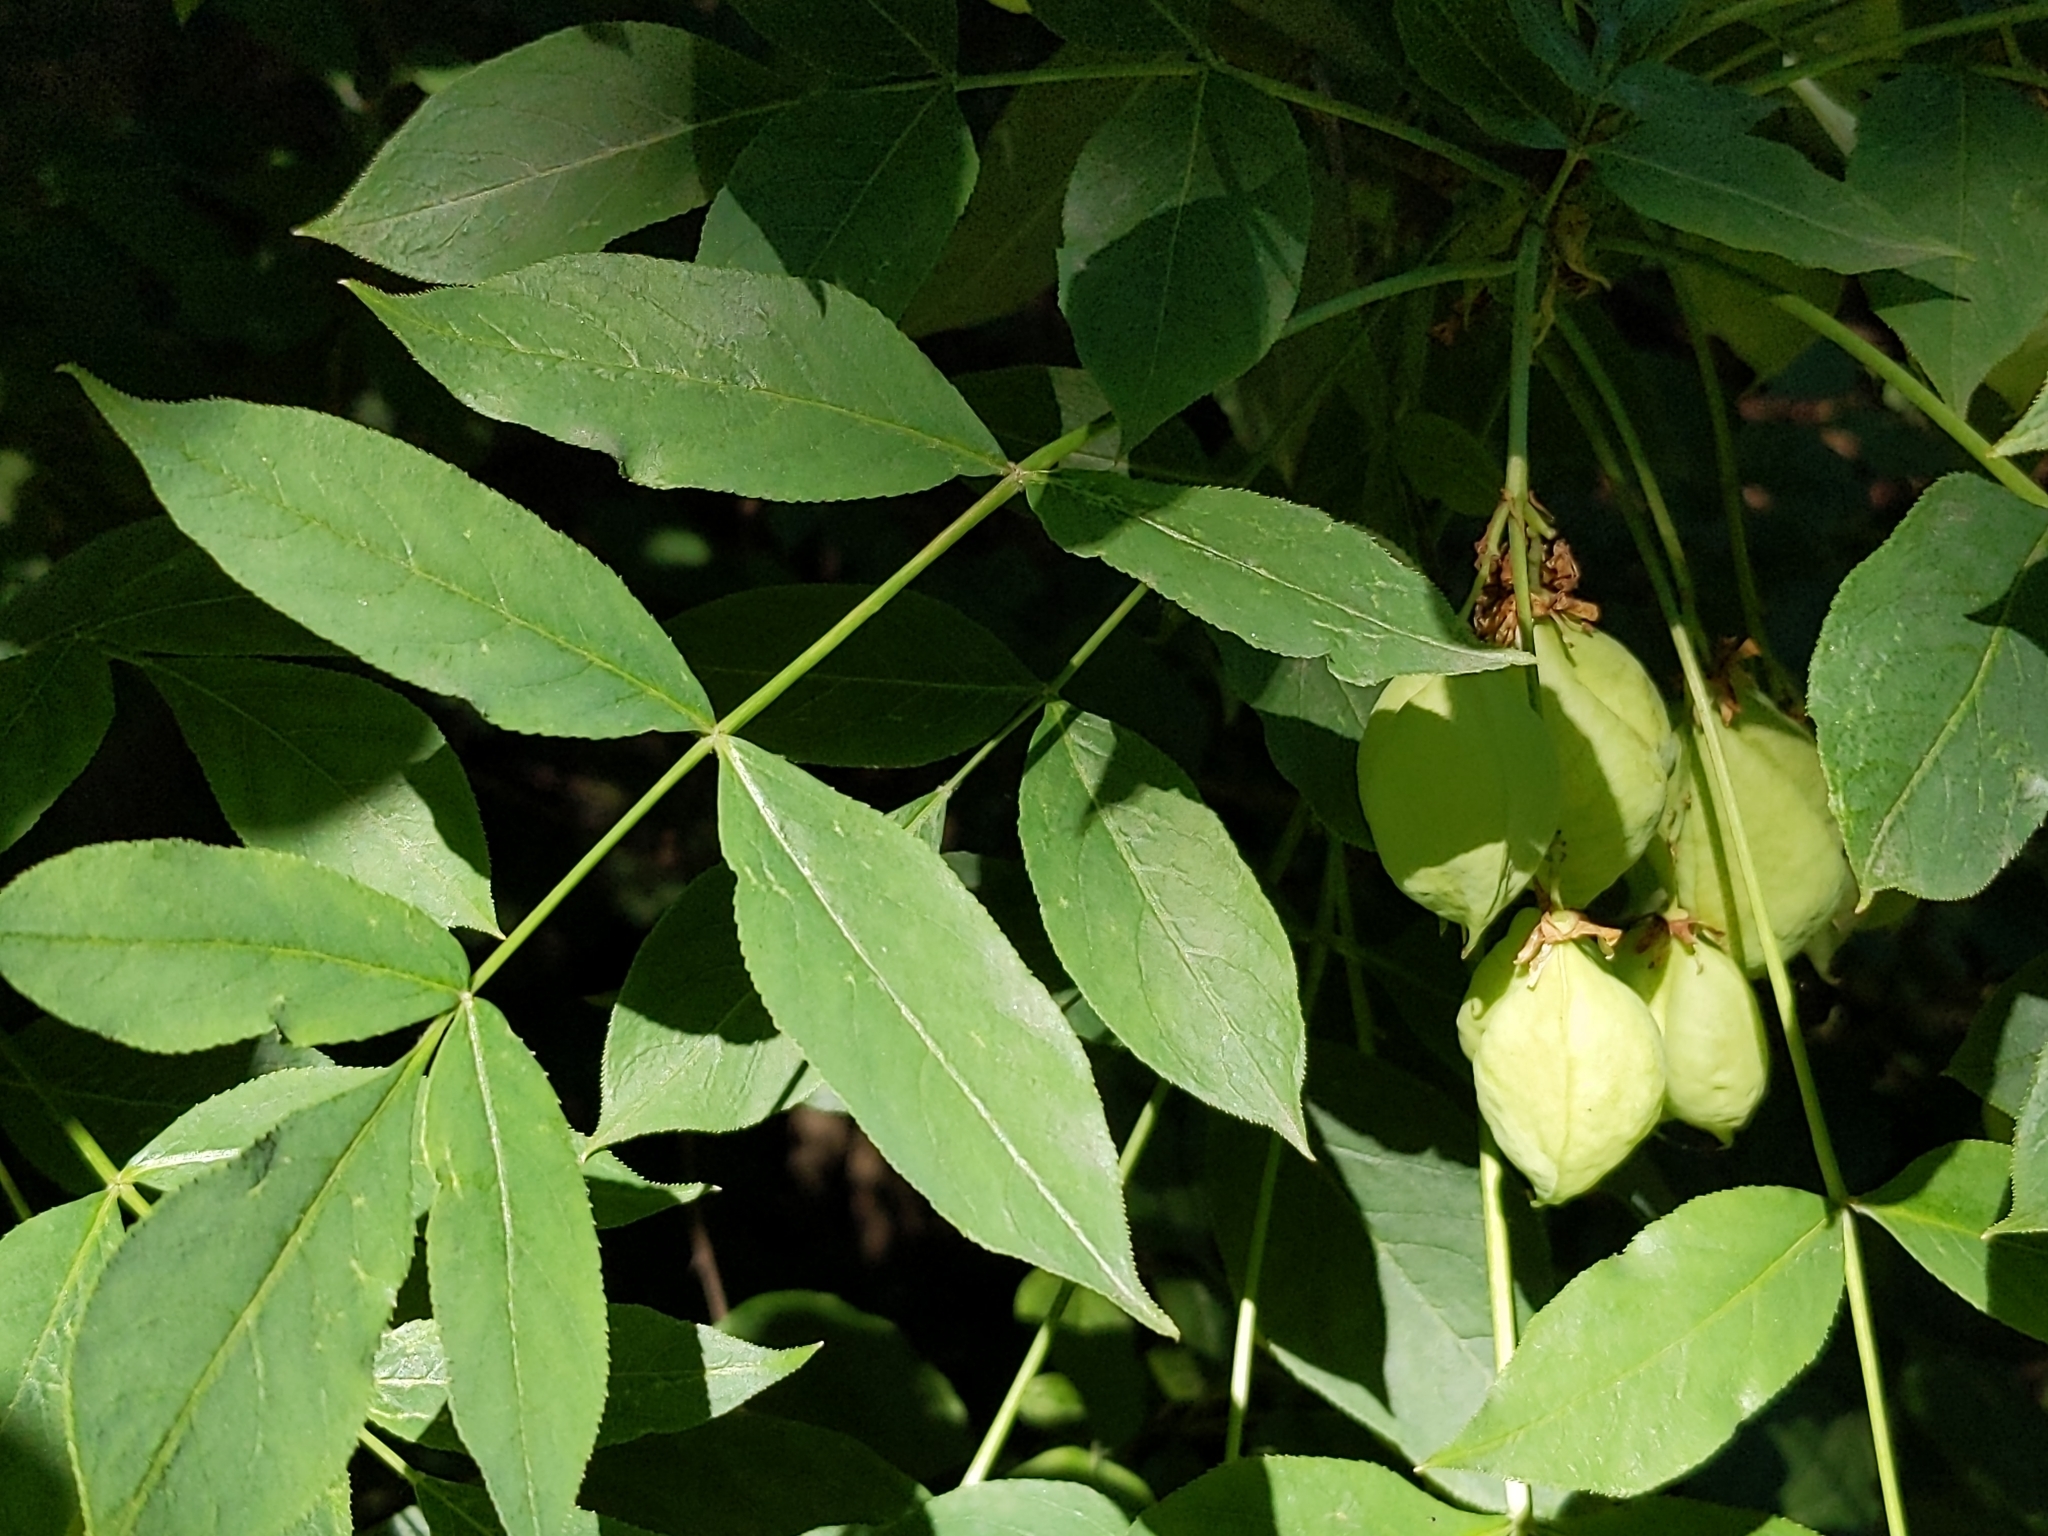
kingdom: Plantae
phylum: Tracheophyta
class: Magnoliopsida
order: Crossosomatales
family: Staphyleaceae
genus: Staphylea
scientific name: Staphylea pinnata
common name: Bladdernut
